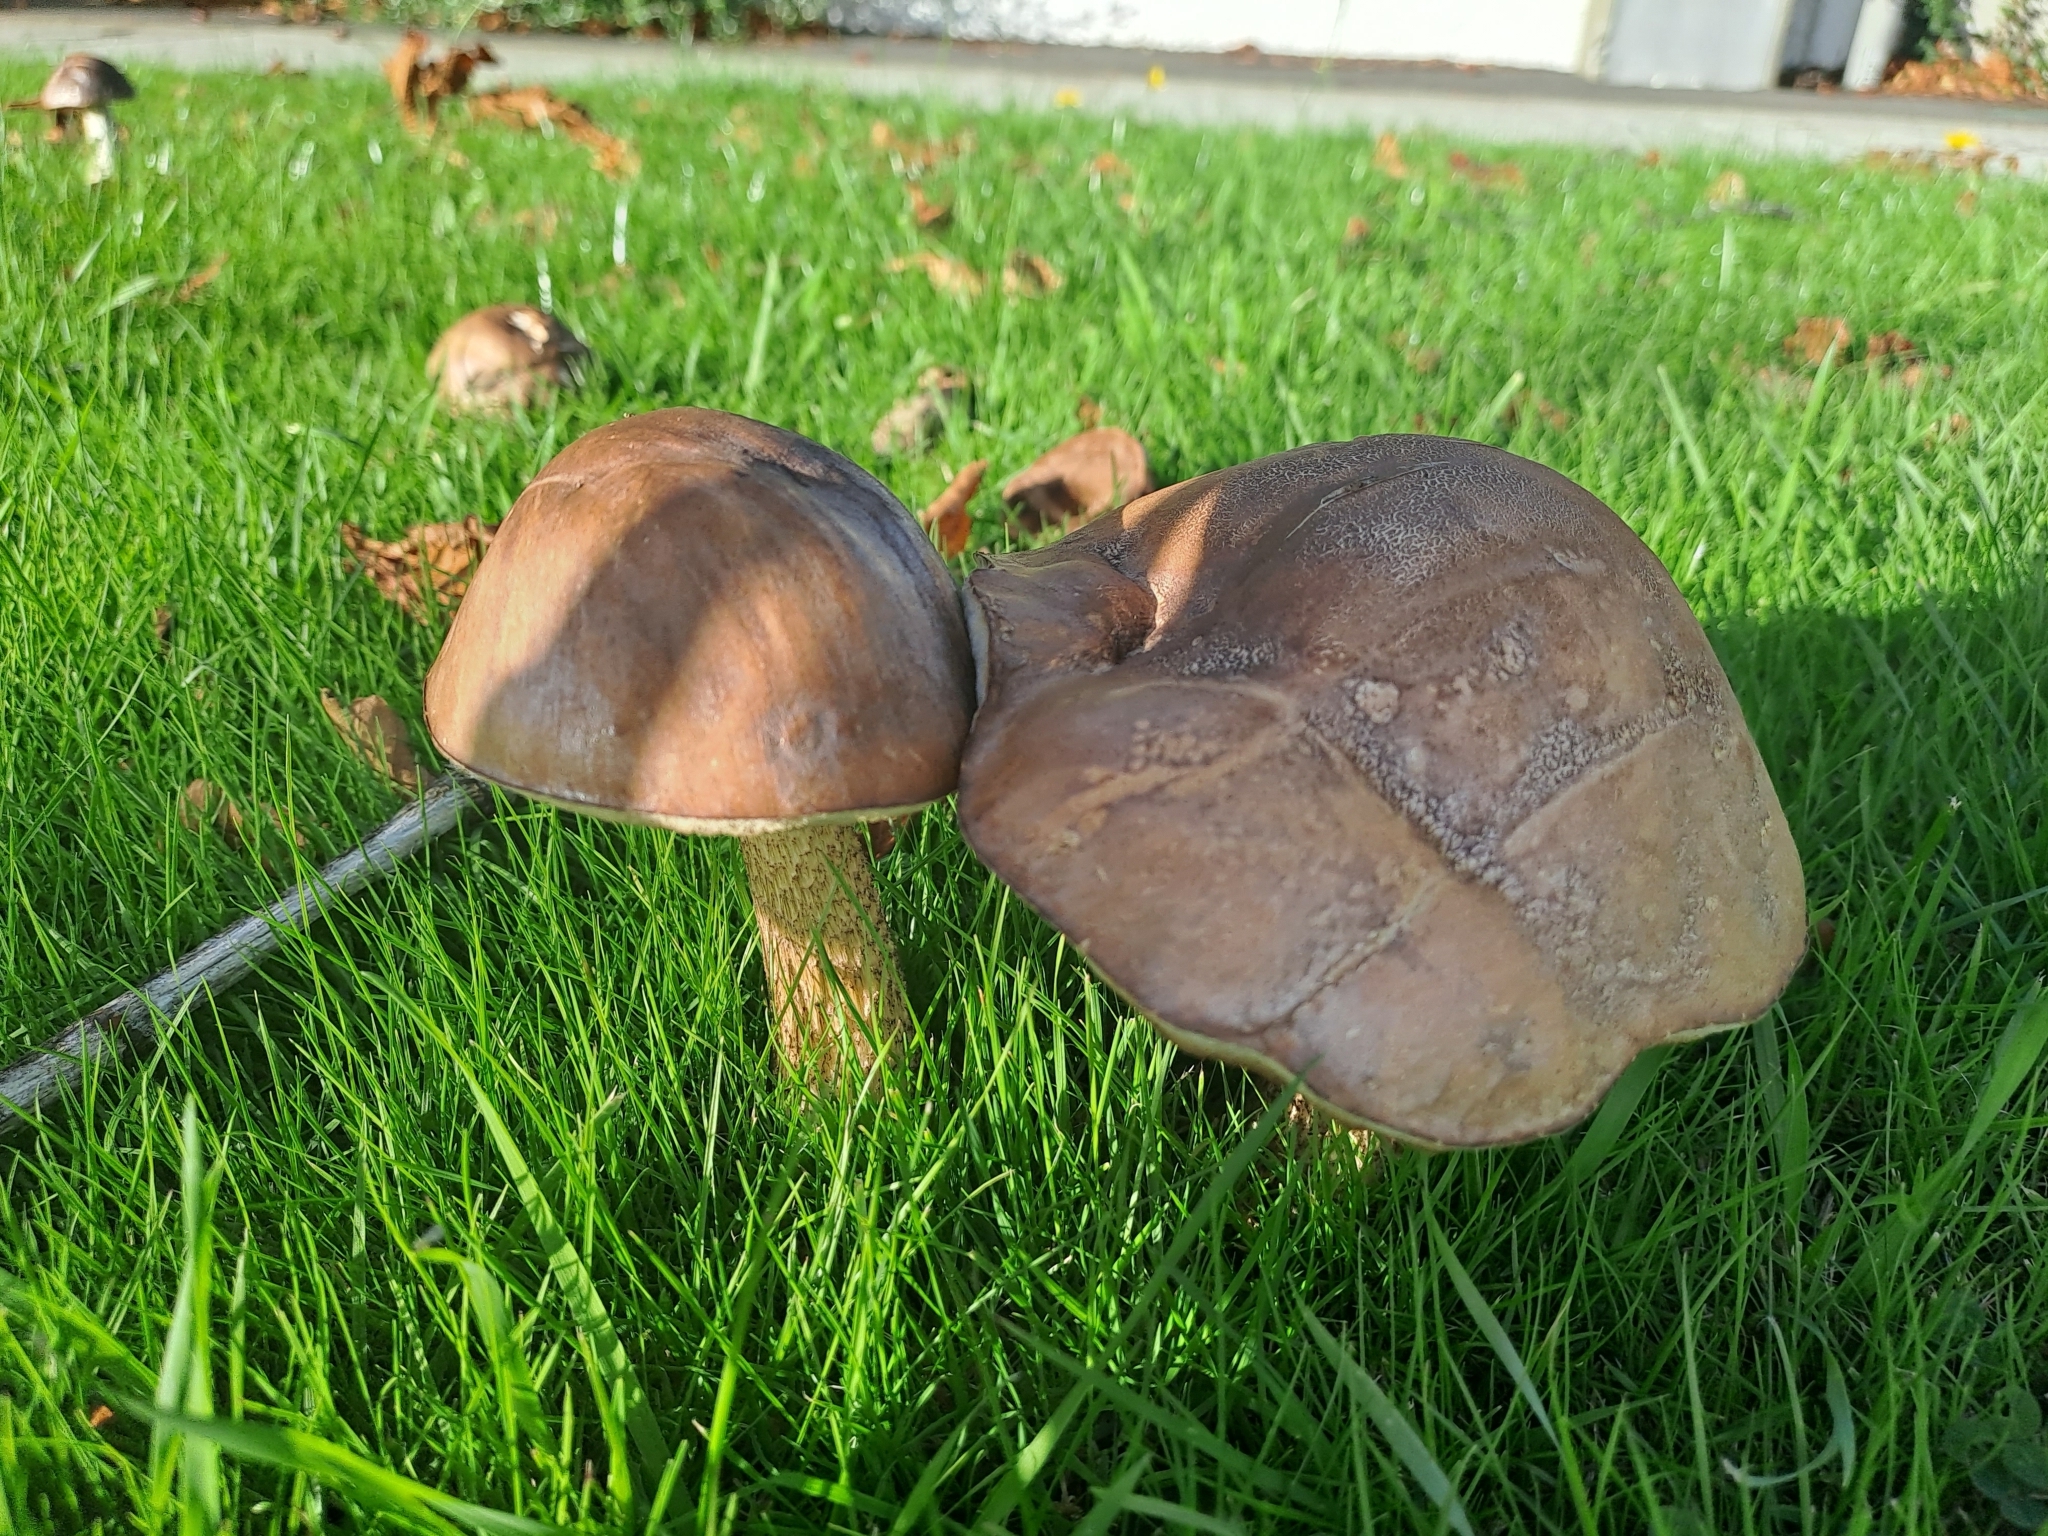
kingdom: Fungi
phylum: Basidiomycota
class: Agaricomycetes
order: Boletales
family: Boletaceae
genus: Leccinum
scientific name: Leccinum scabrum
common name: Blushing bolete
